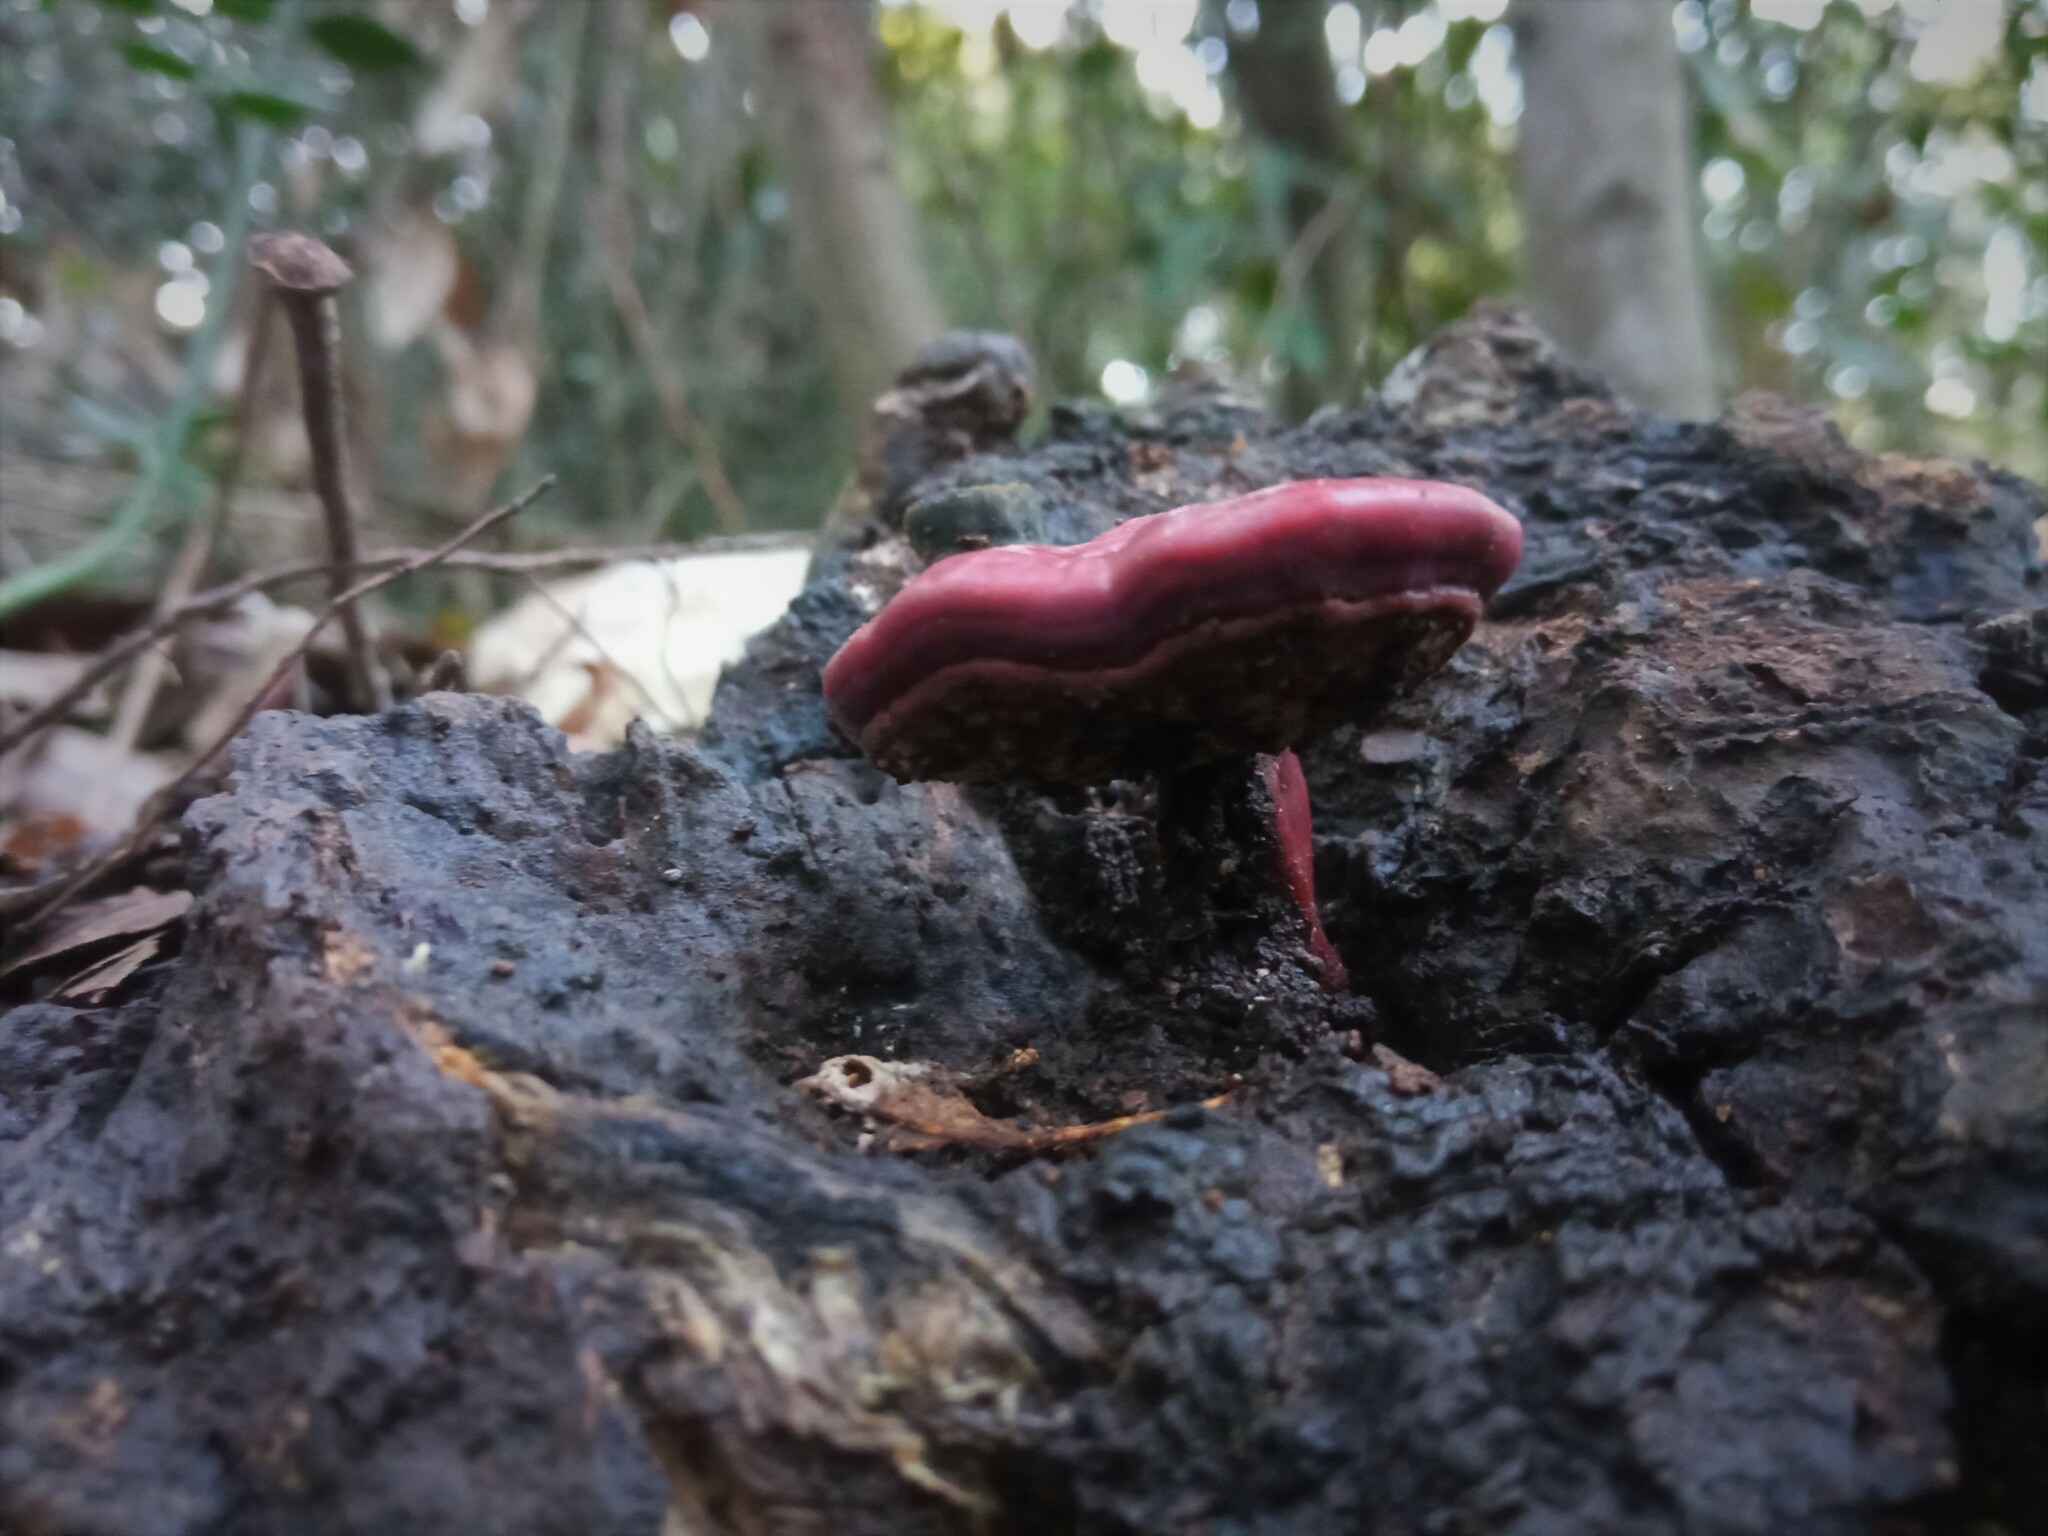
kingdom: Fungi
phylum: Basidiomycota
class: Agaricomycetes
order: Polyporales
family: Polyporaceae
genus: Ganoderma
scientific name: Ganoderma lucidum
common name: Lacquered bracket
